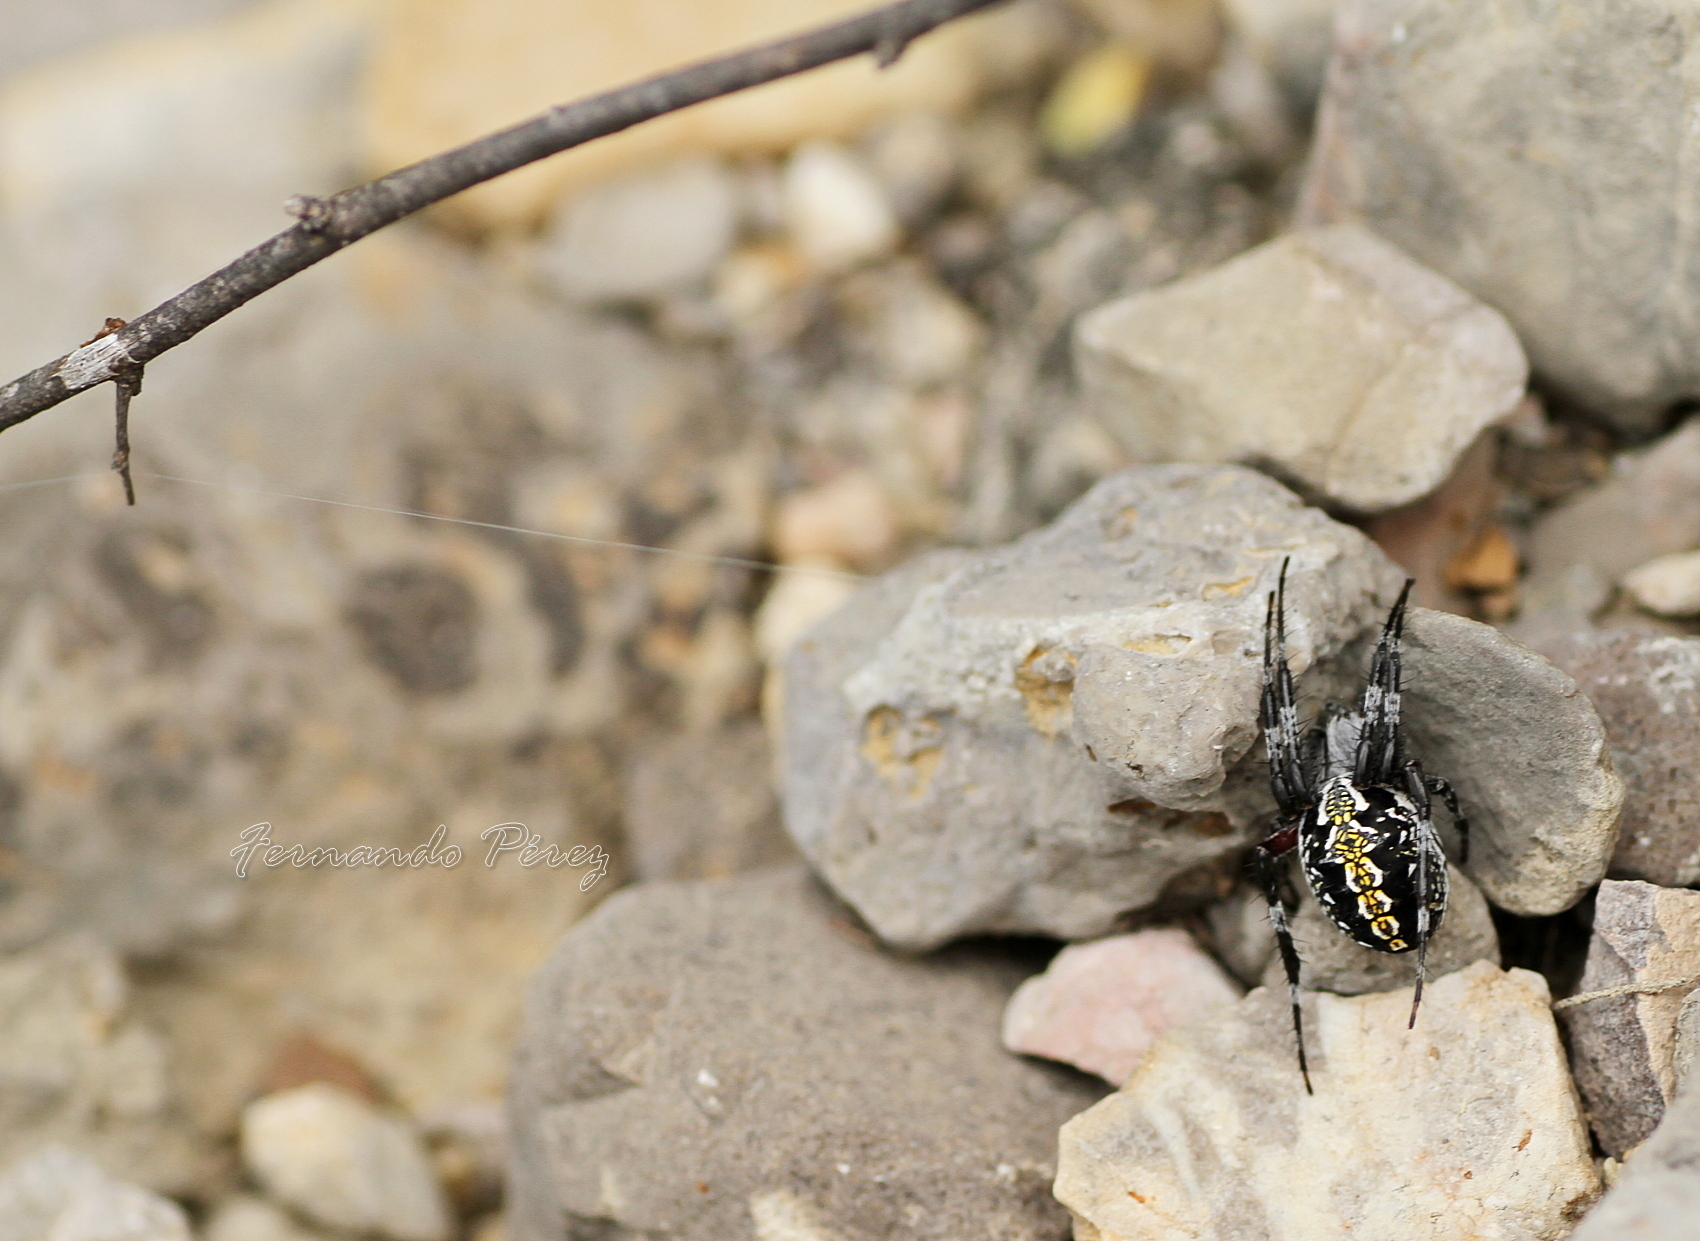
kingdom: Animalia
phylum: Arthropoda
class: Arachnida
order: Araneae
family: Araneidae
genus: Neoscona
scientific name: Neoscona oaxacensis
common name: Orb weavers
